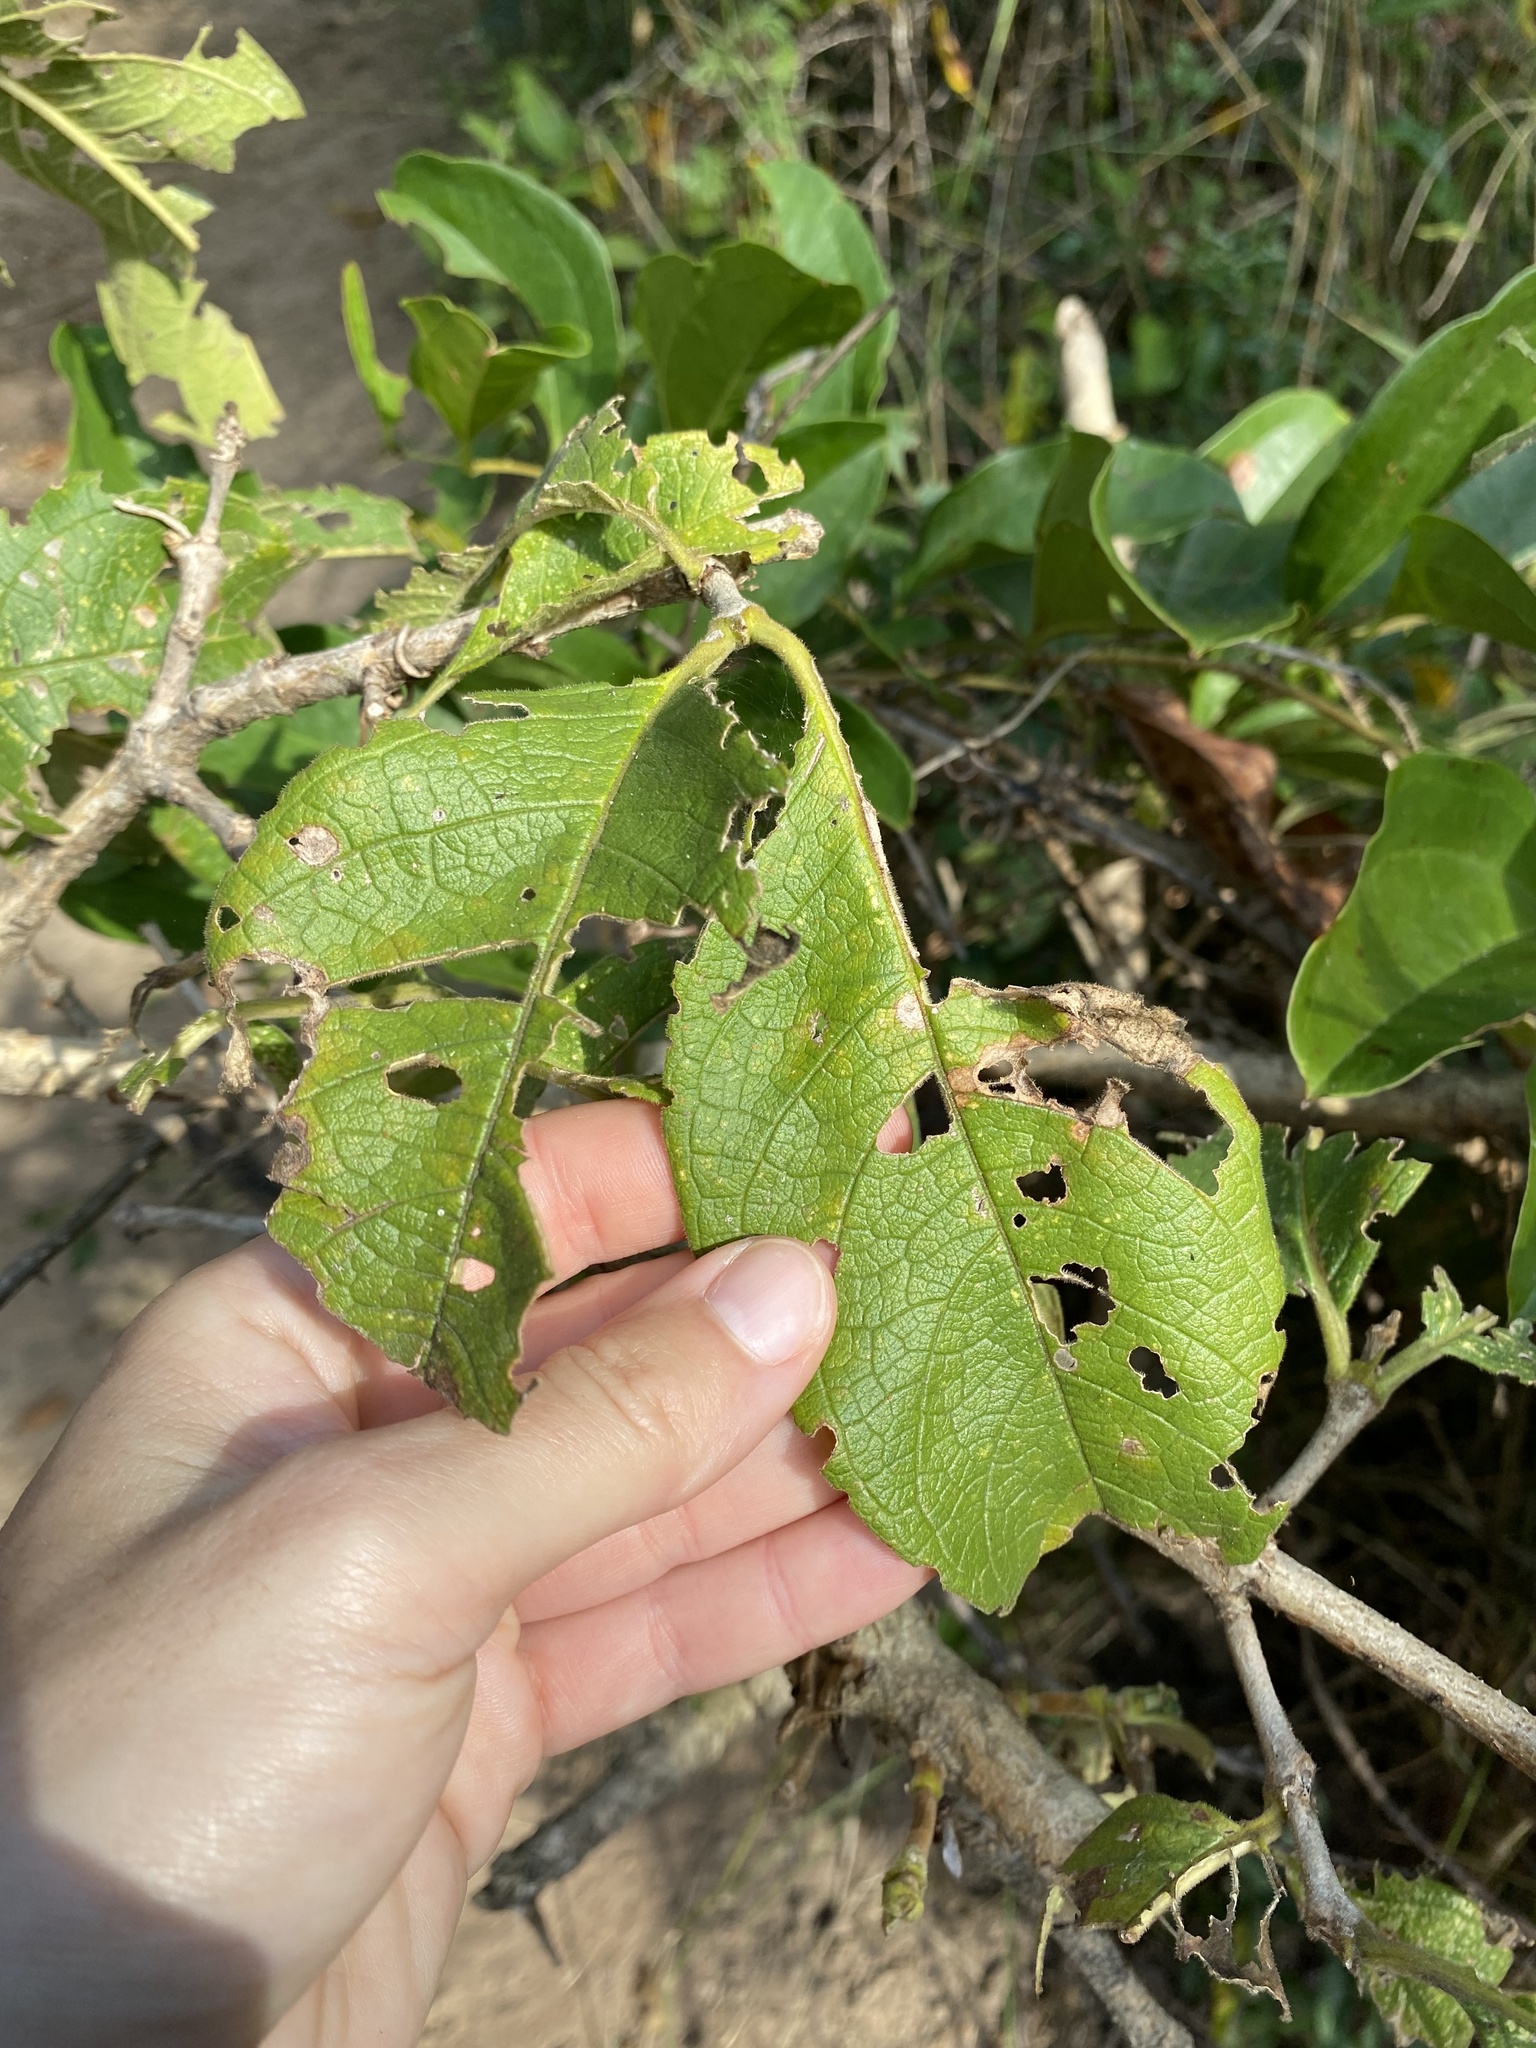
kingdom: Plantae
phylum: Tracheophyta
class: Magnoliopsida
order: Gentianales
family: Rubiaceae
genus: Vangueria
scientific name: Vangueria infausta
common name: Medlar
